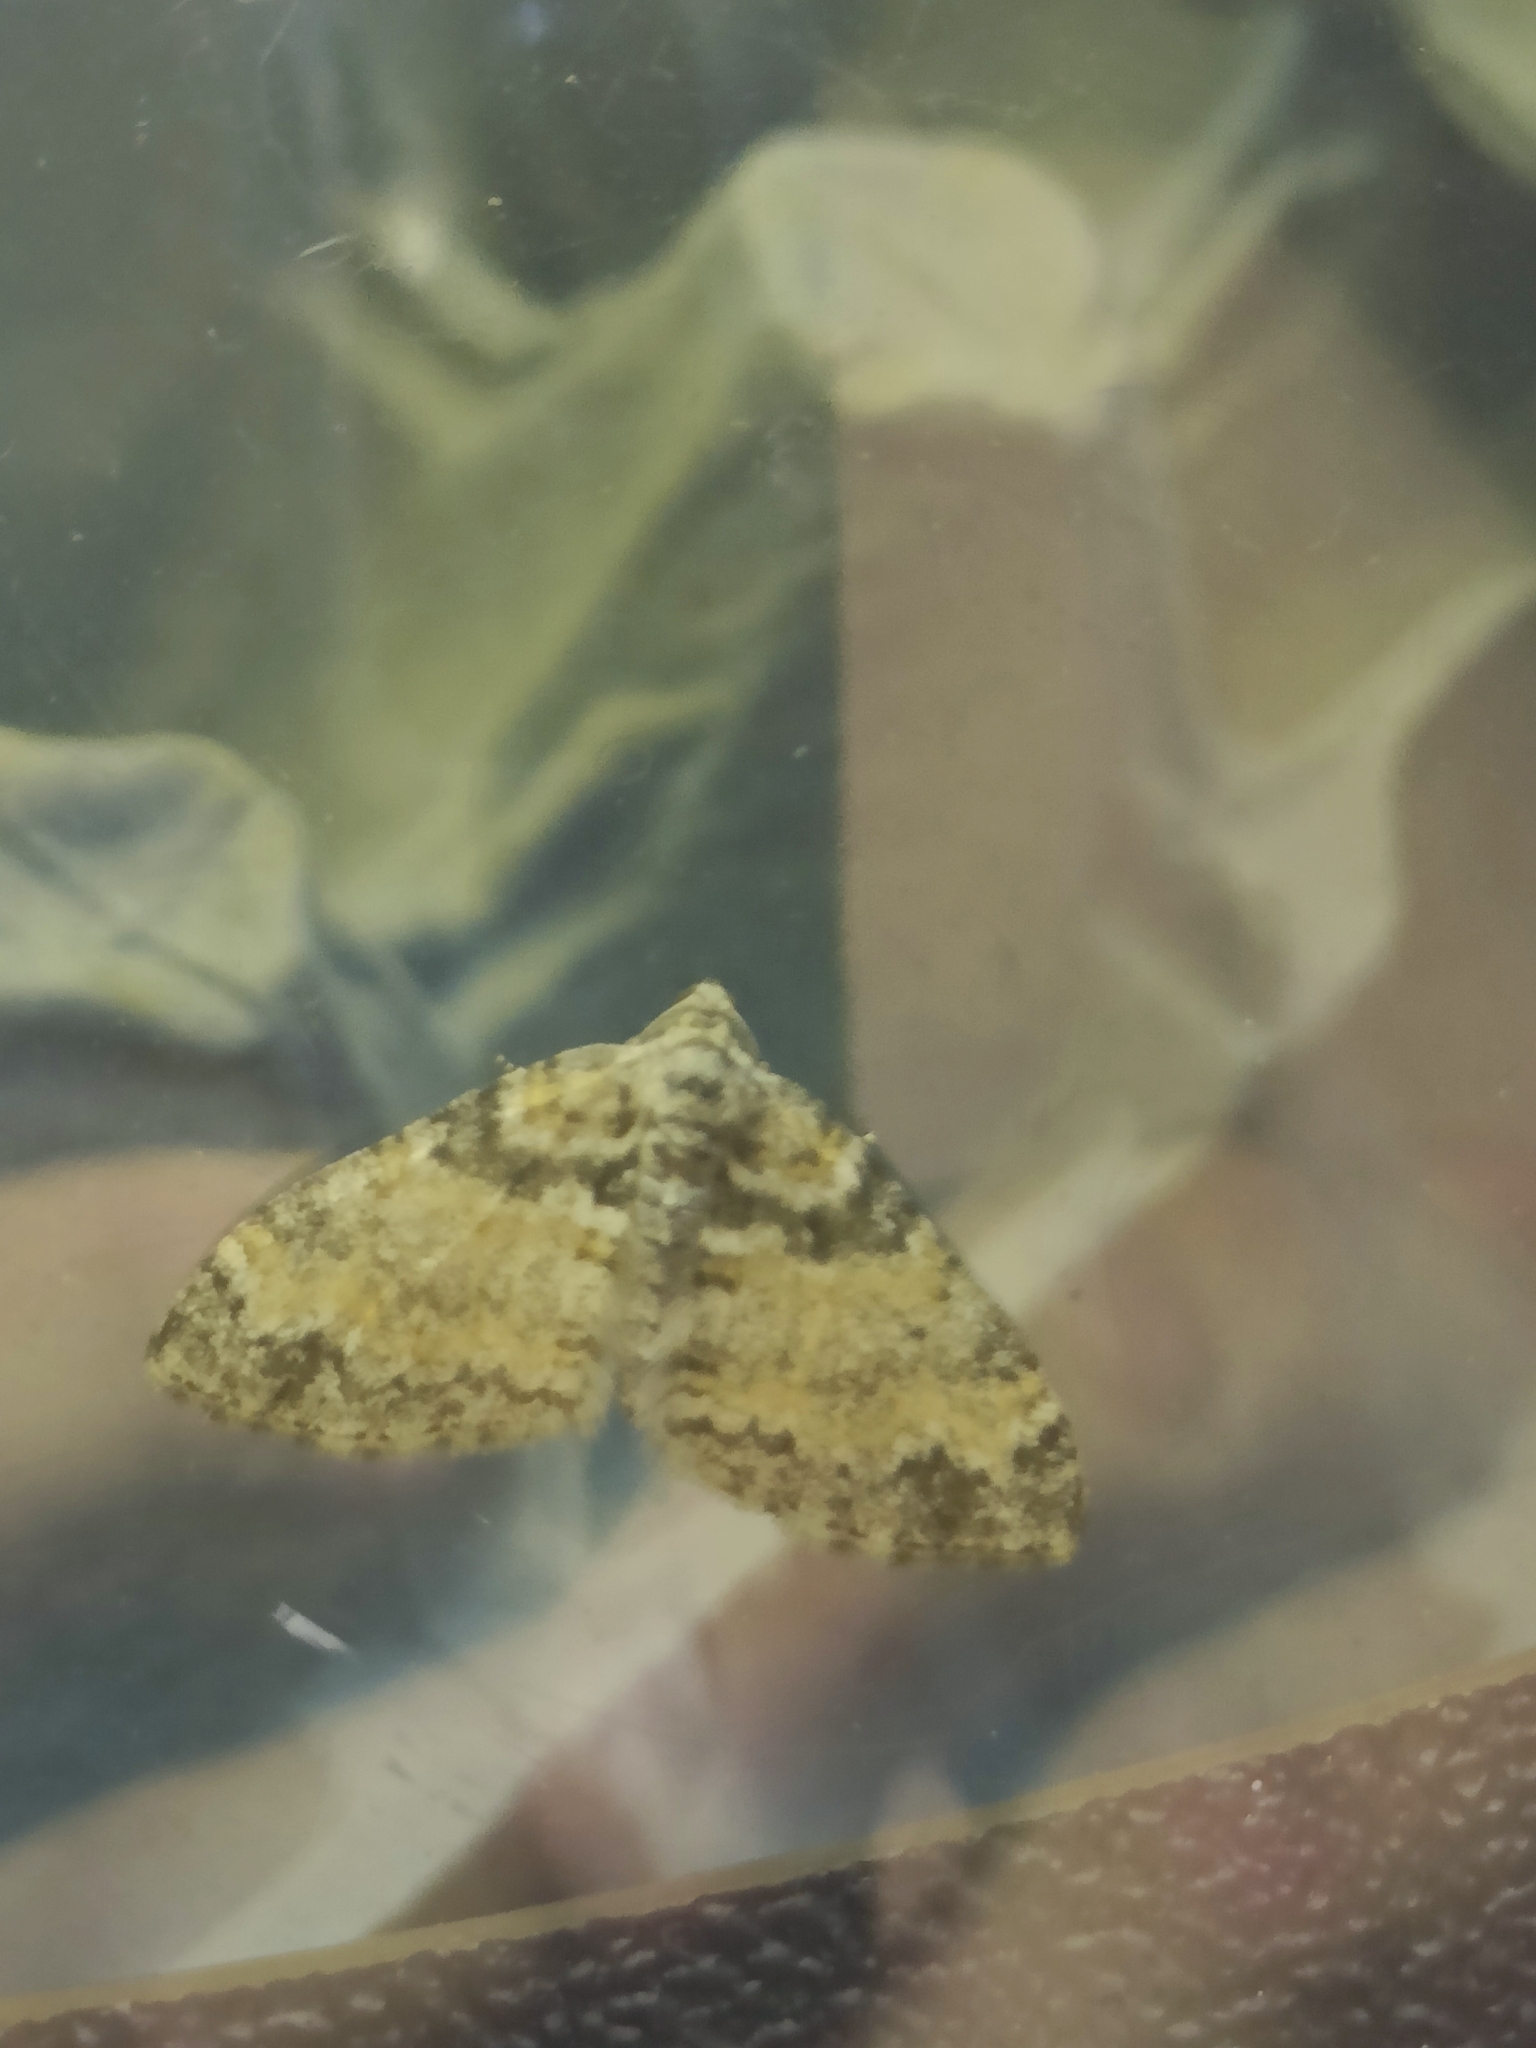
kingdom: Animalia
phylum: Arthropoda
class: Insecta
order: Lepidoptera
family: Geometridae
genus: Lobophora
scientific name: Lobophora halterata
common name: Seraphim
